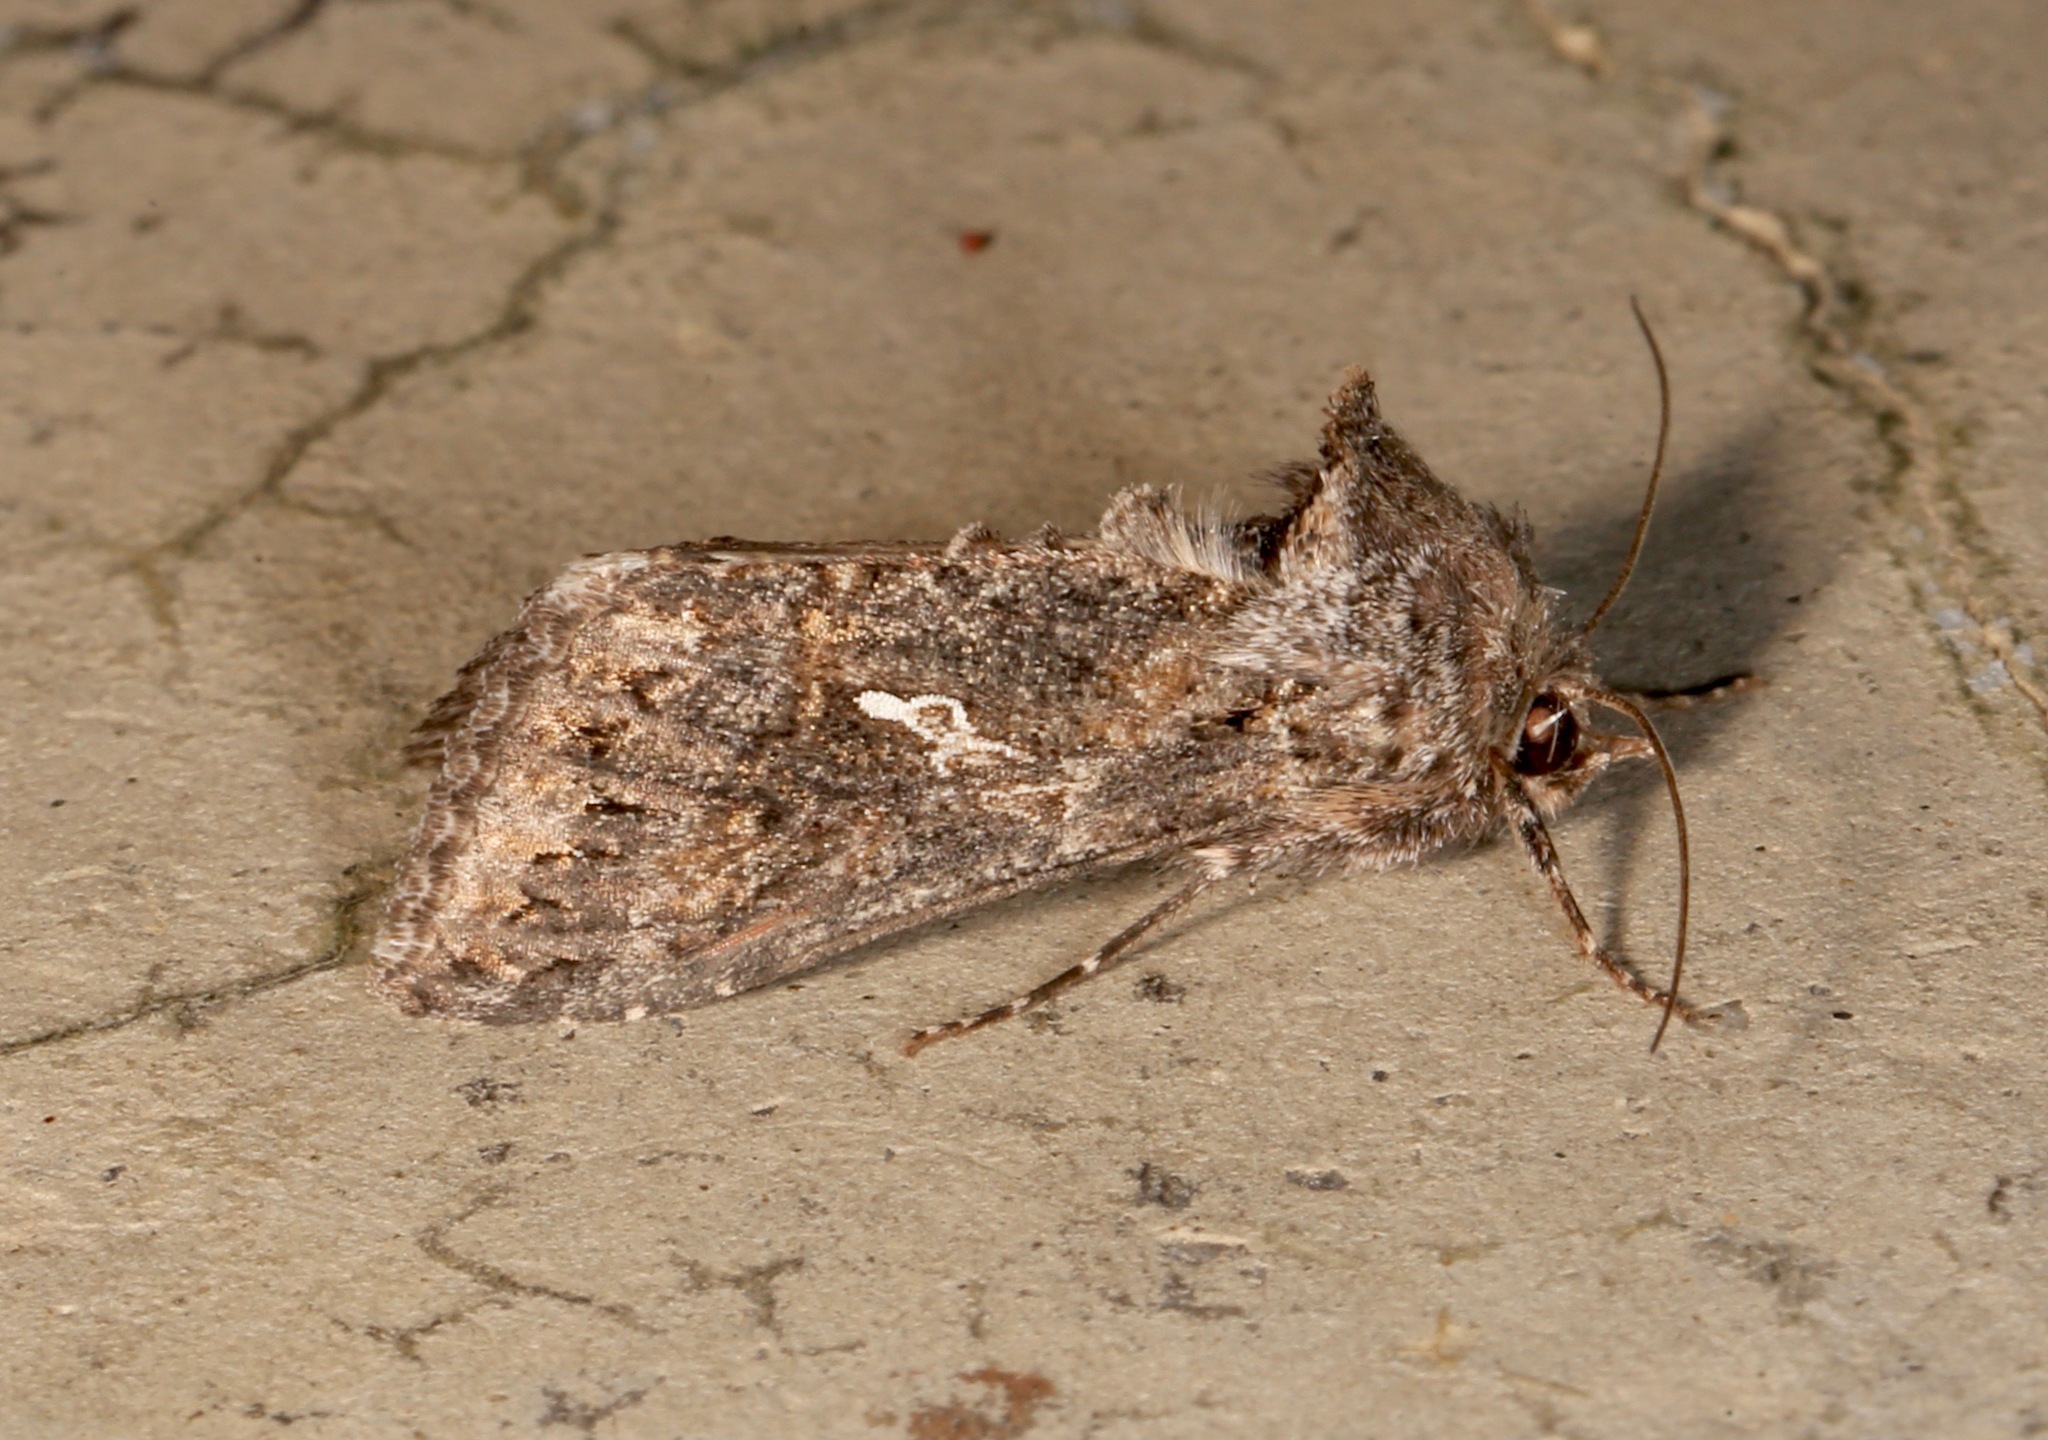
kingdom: Animalia
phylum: Arthropoda
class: Insecta
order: Lepidoptera
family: Noctuidae
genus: Trichoplusia
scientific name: Trichoplusia ni
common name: Ni moth
